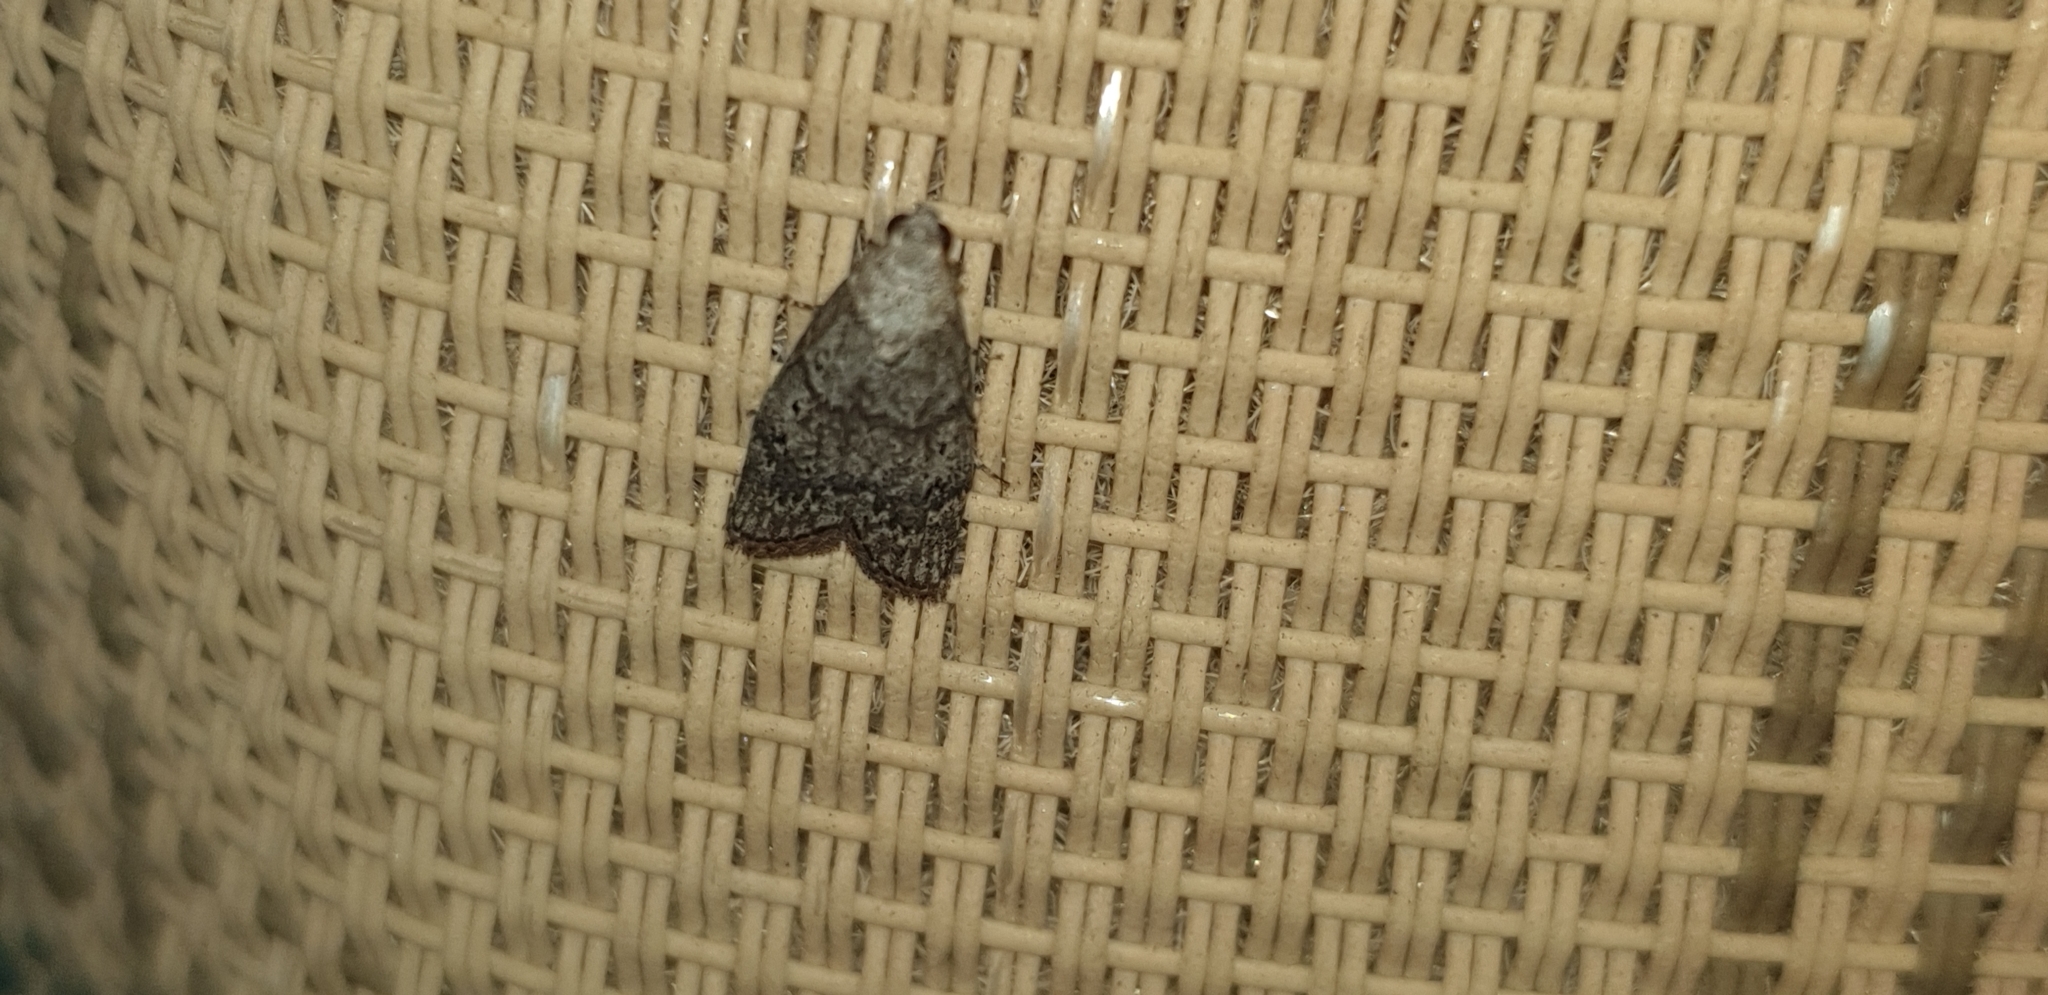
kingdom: Animalia
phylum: Arthropoda
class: Insecta
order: Lepidoptera
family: Pyralidae
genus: Heteromicta
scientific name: Heteromicta pachytera
